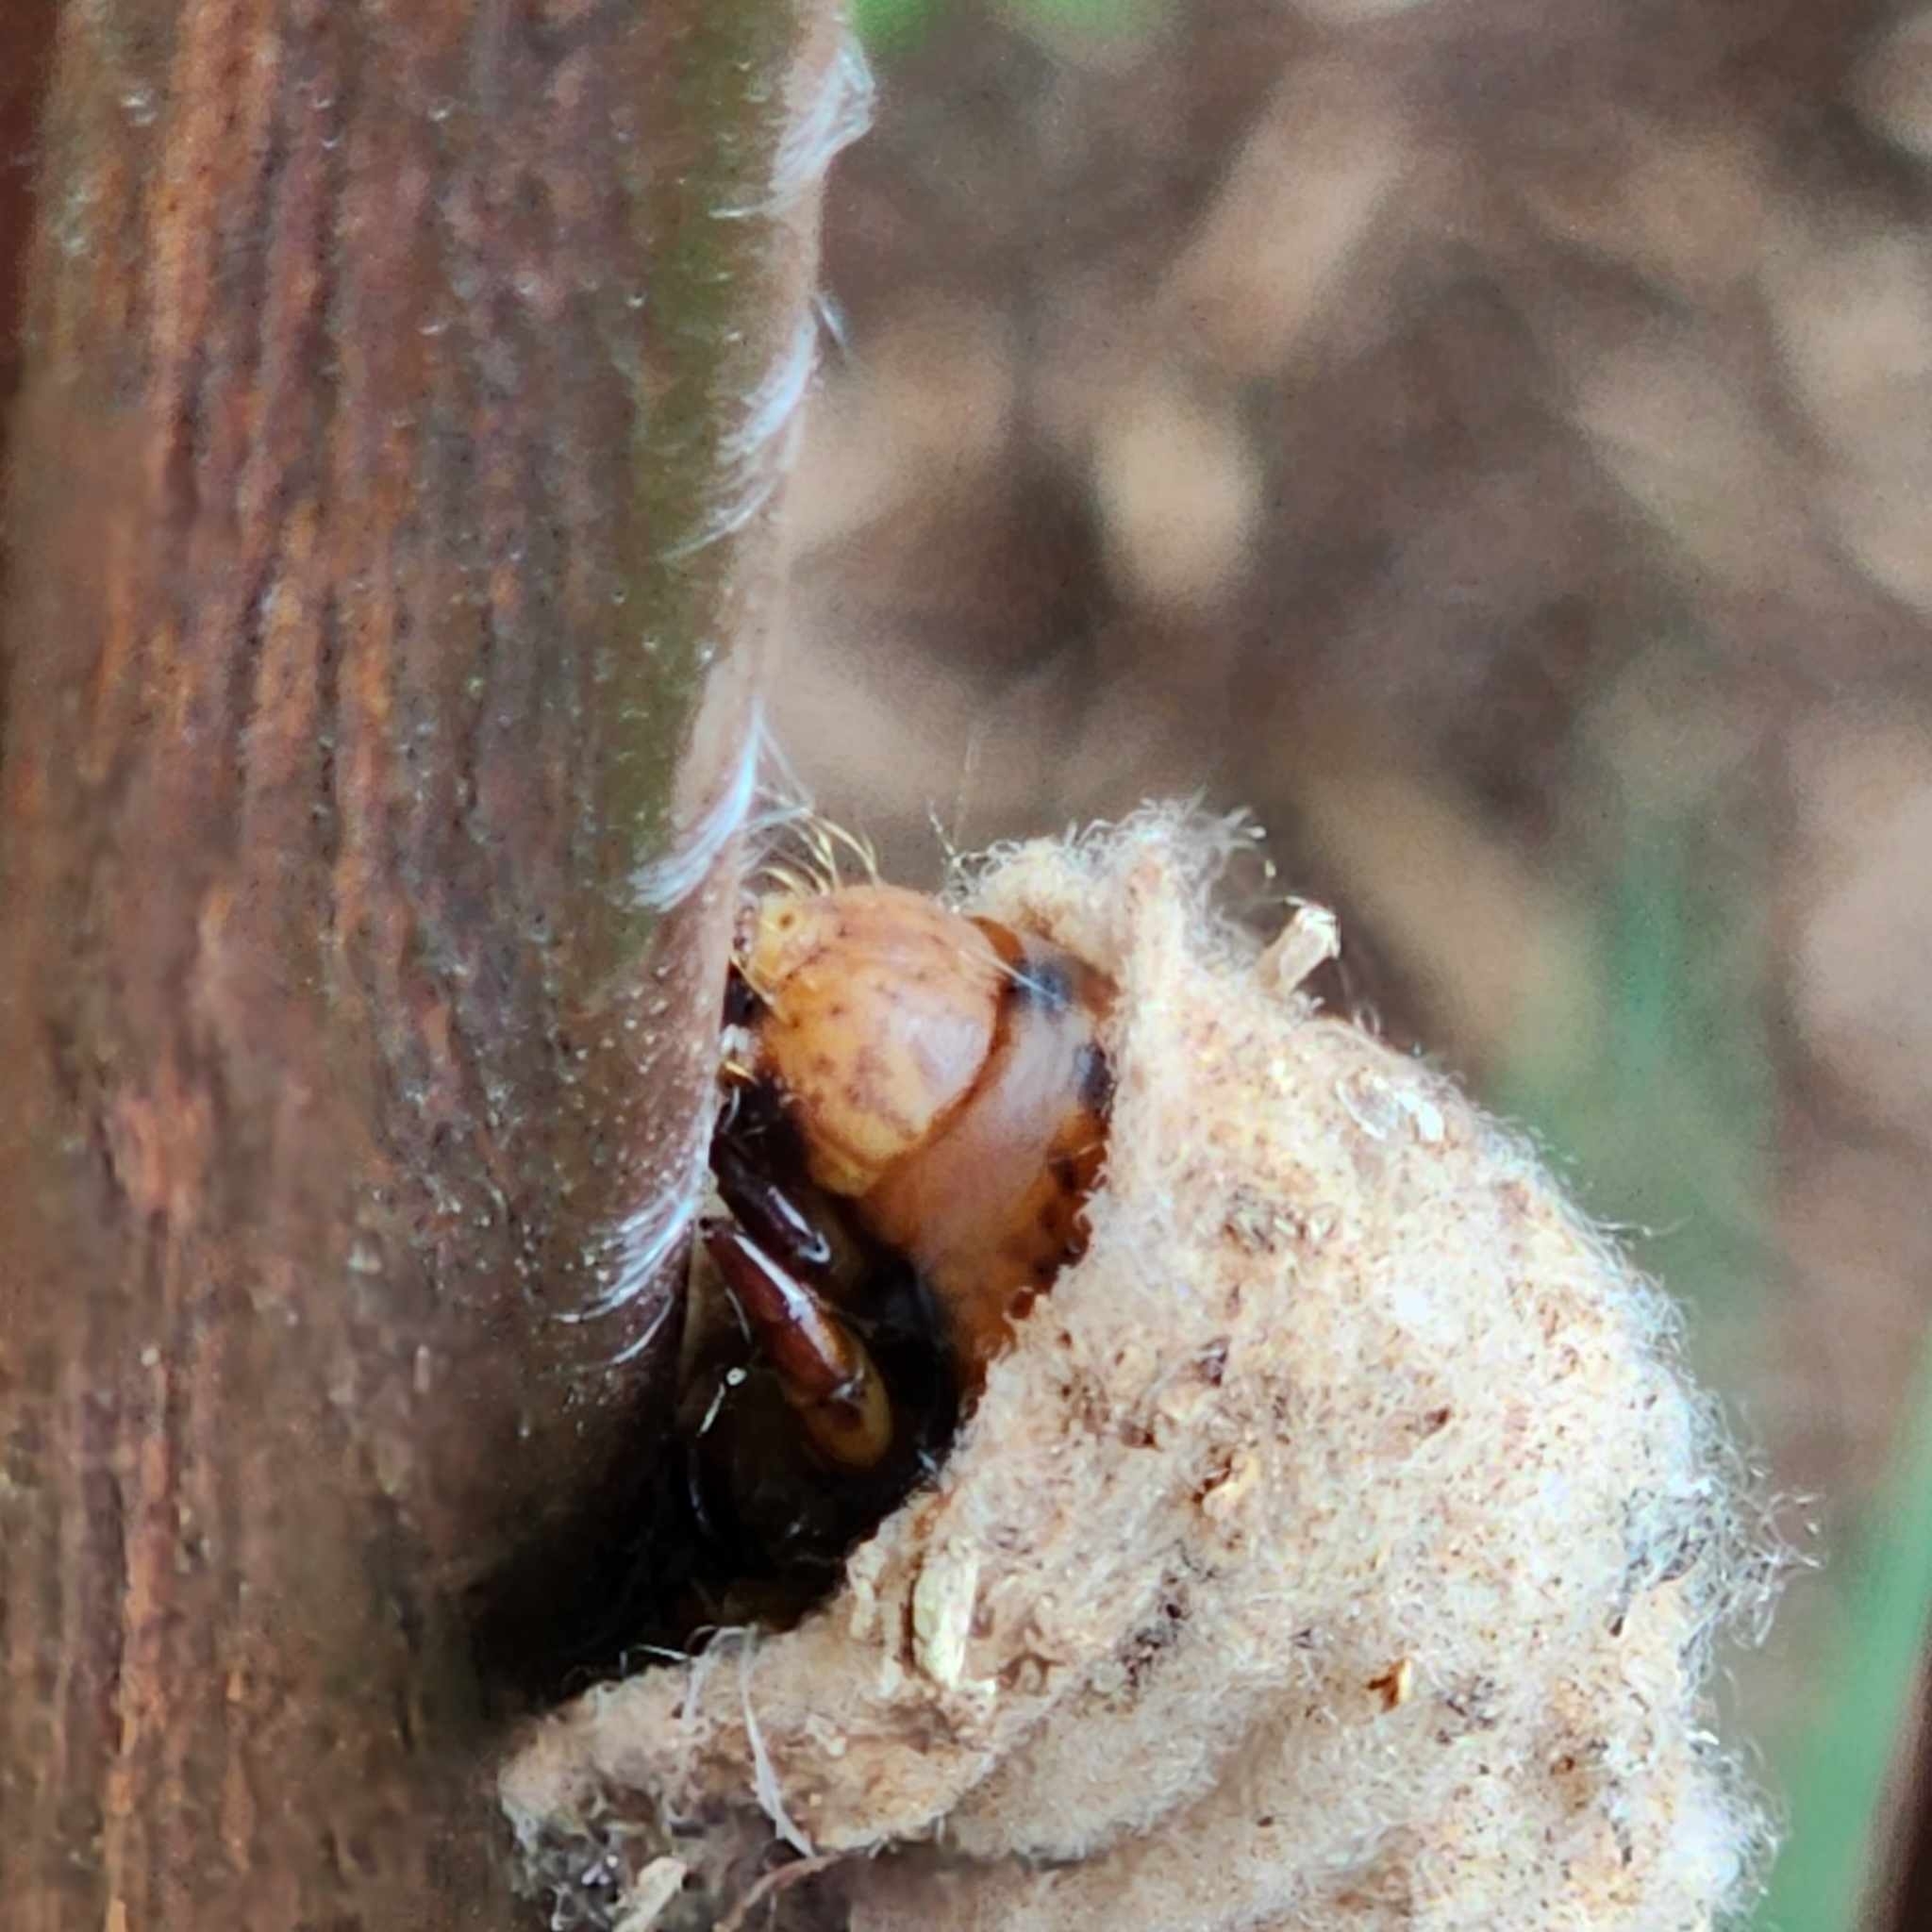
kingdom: Animalia
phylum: Arthropoda
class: Insecta
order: Lepidoptera
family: Psychidae
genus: Metura
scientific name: Metura elongatus
